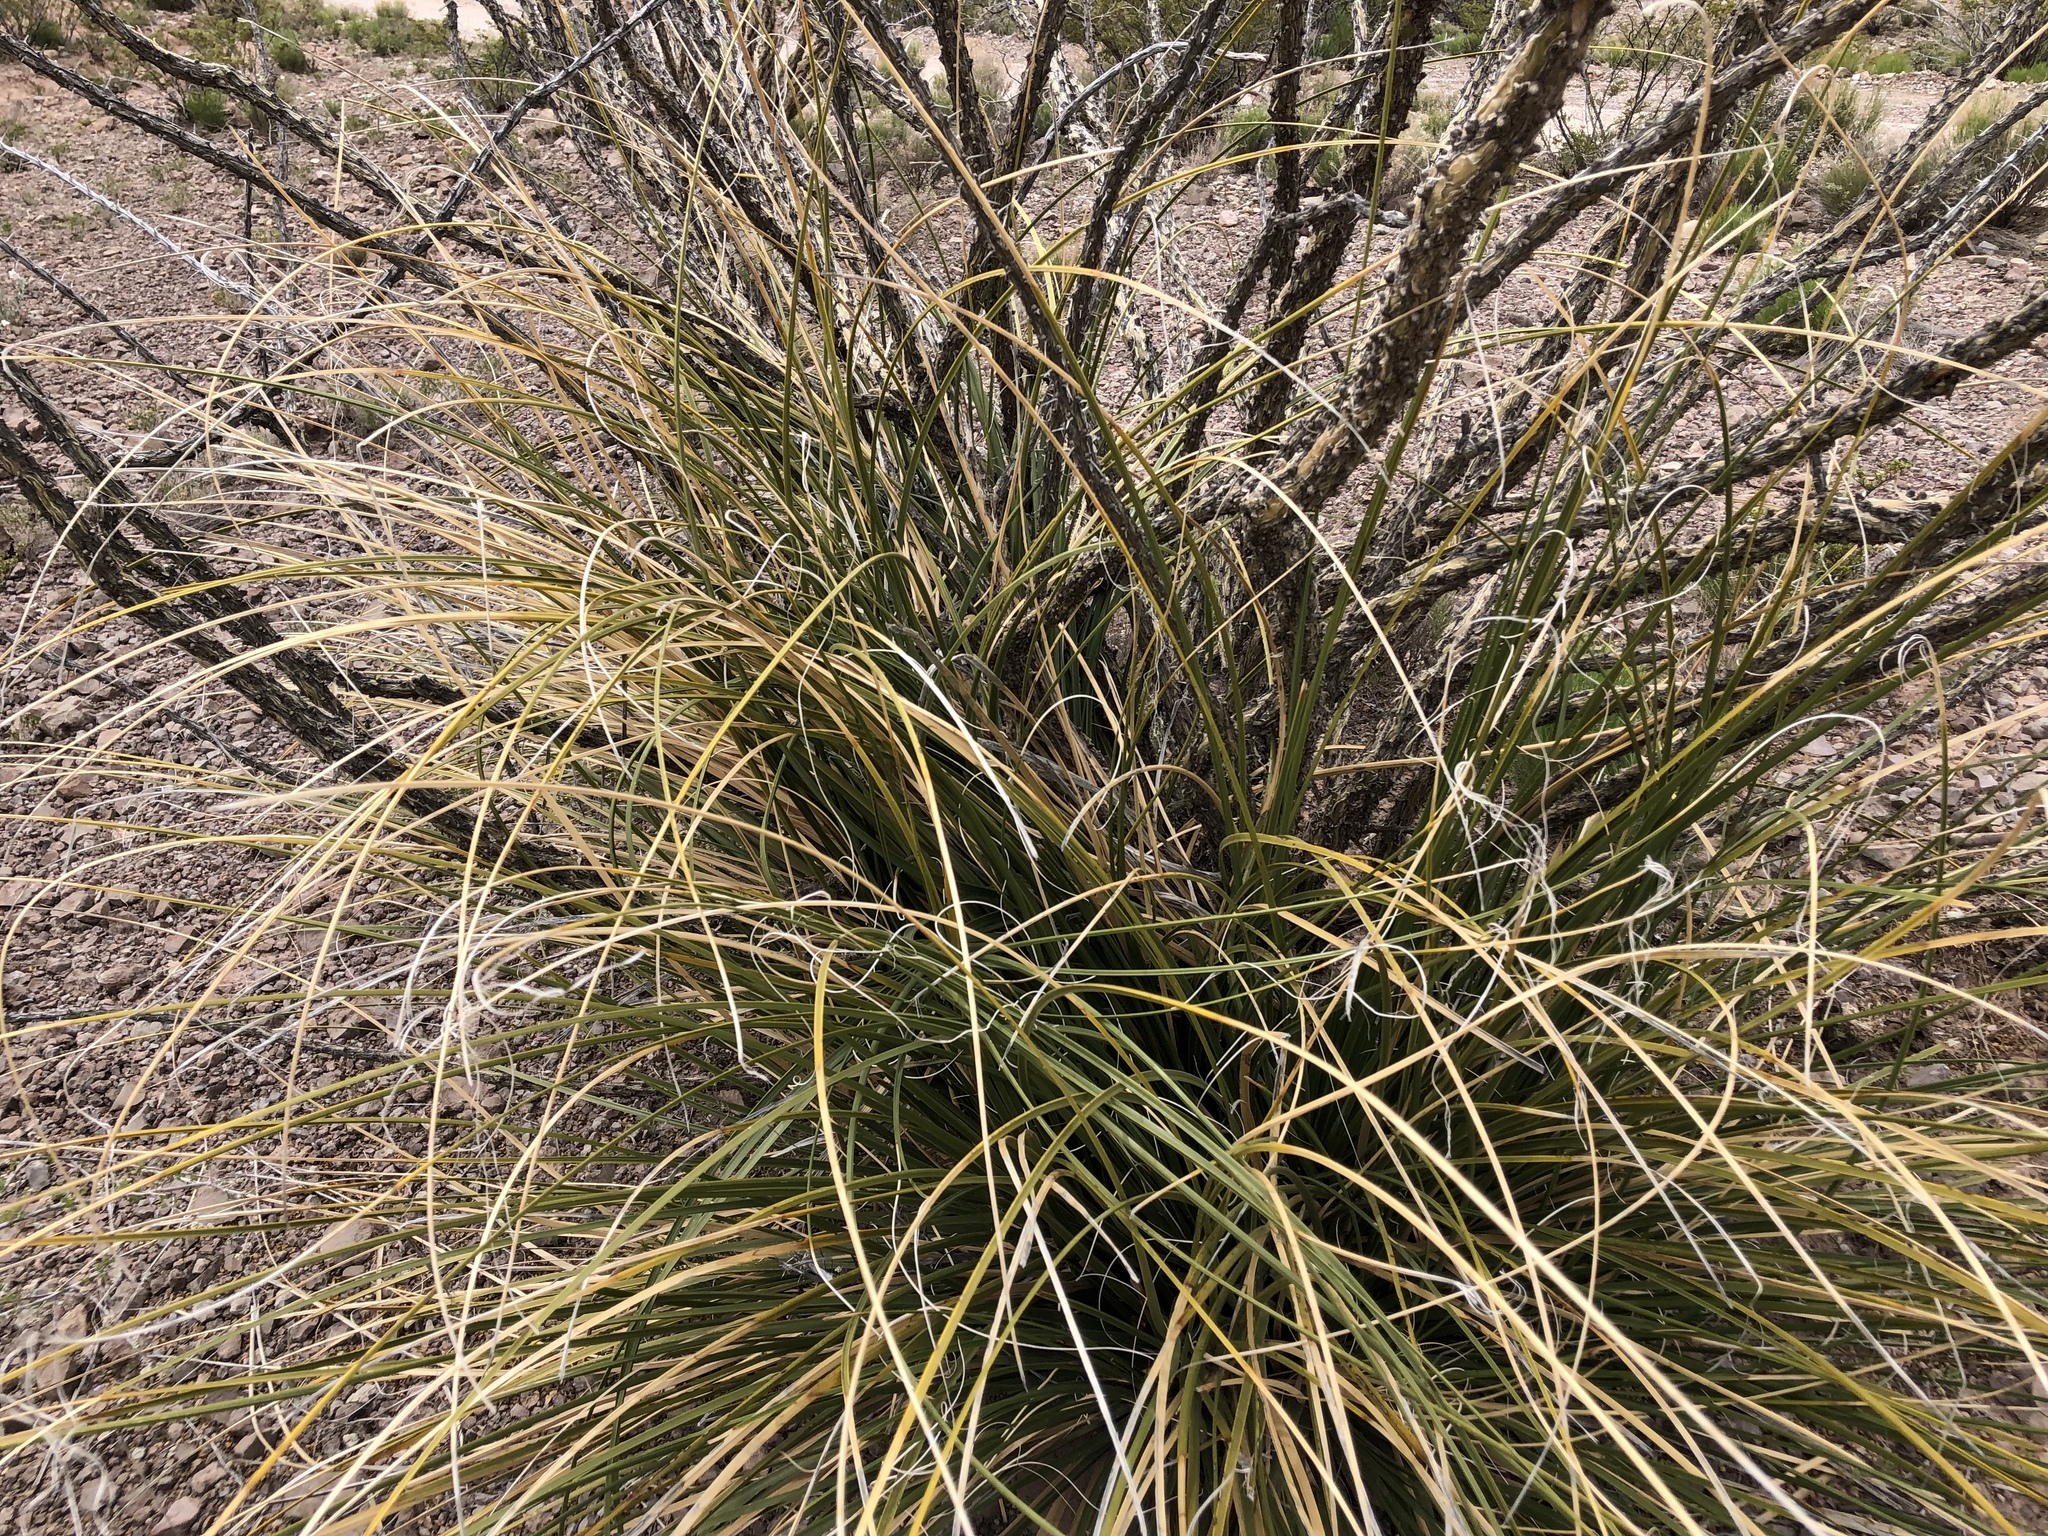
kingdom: Plantae
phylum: Tracheophyta
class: Liliopsida
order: Asparagales
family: Asparagaceae
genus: Nolina
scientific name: Nolina microcarpa
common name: Bear-grass
